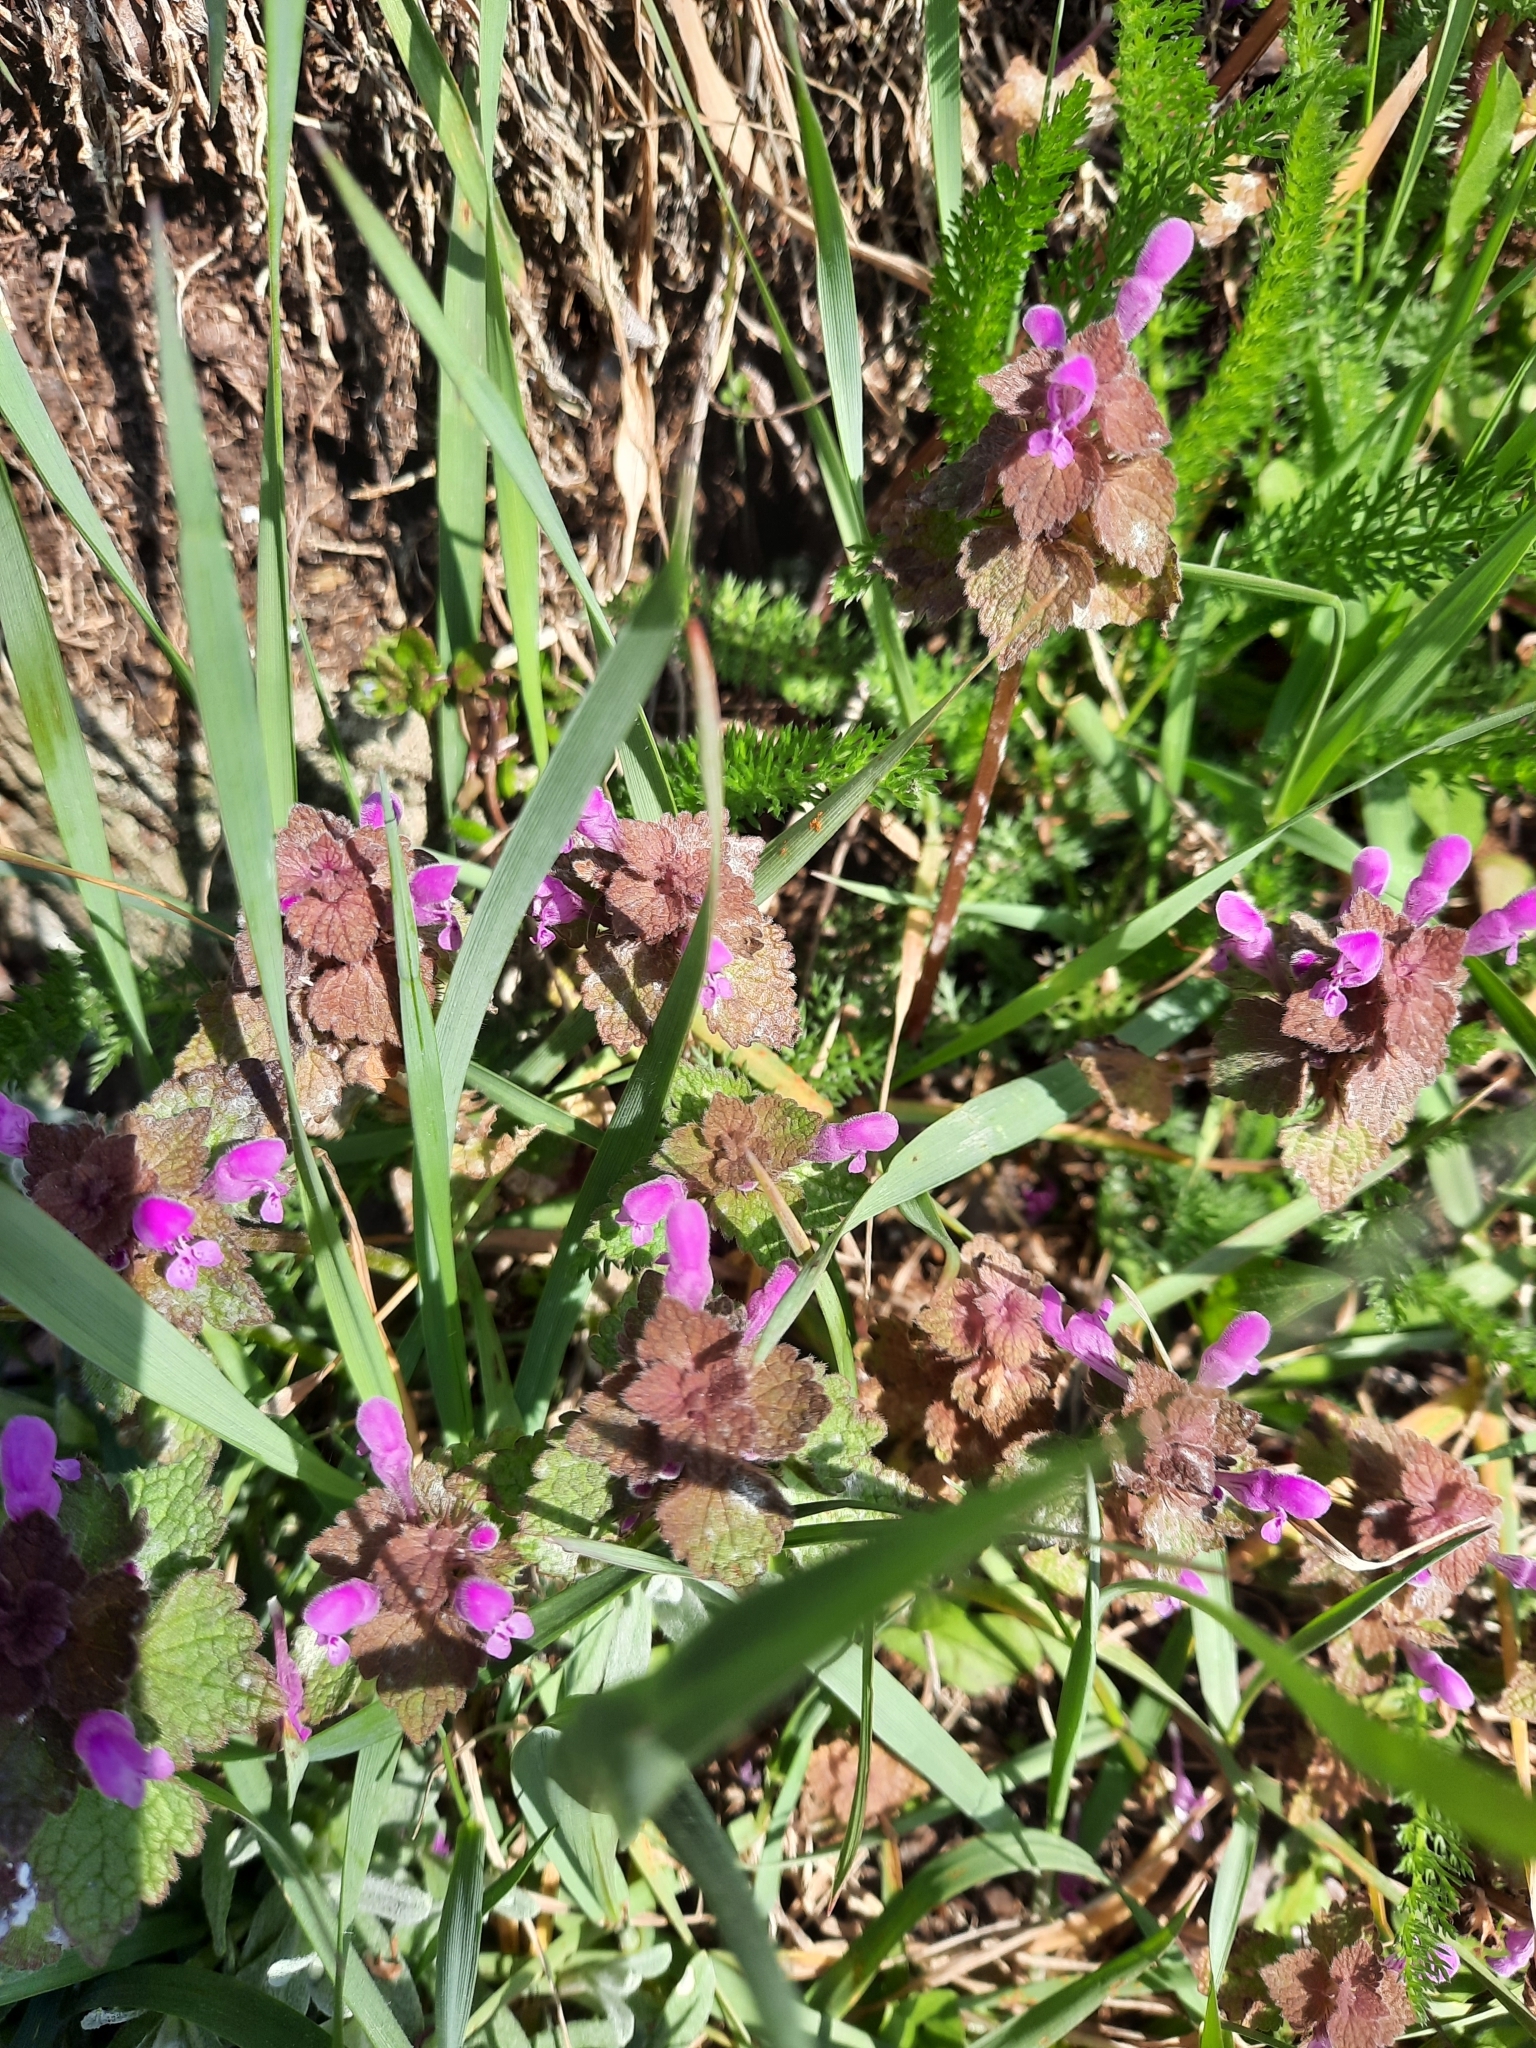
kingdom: Plantae
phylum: Tracheophyta
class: Magnoliopsida
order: Lamiales
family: Lamiaceae
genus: Lamium
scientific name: Lamium purpureum
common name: Red dead-nettle
